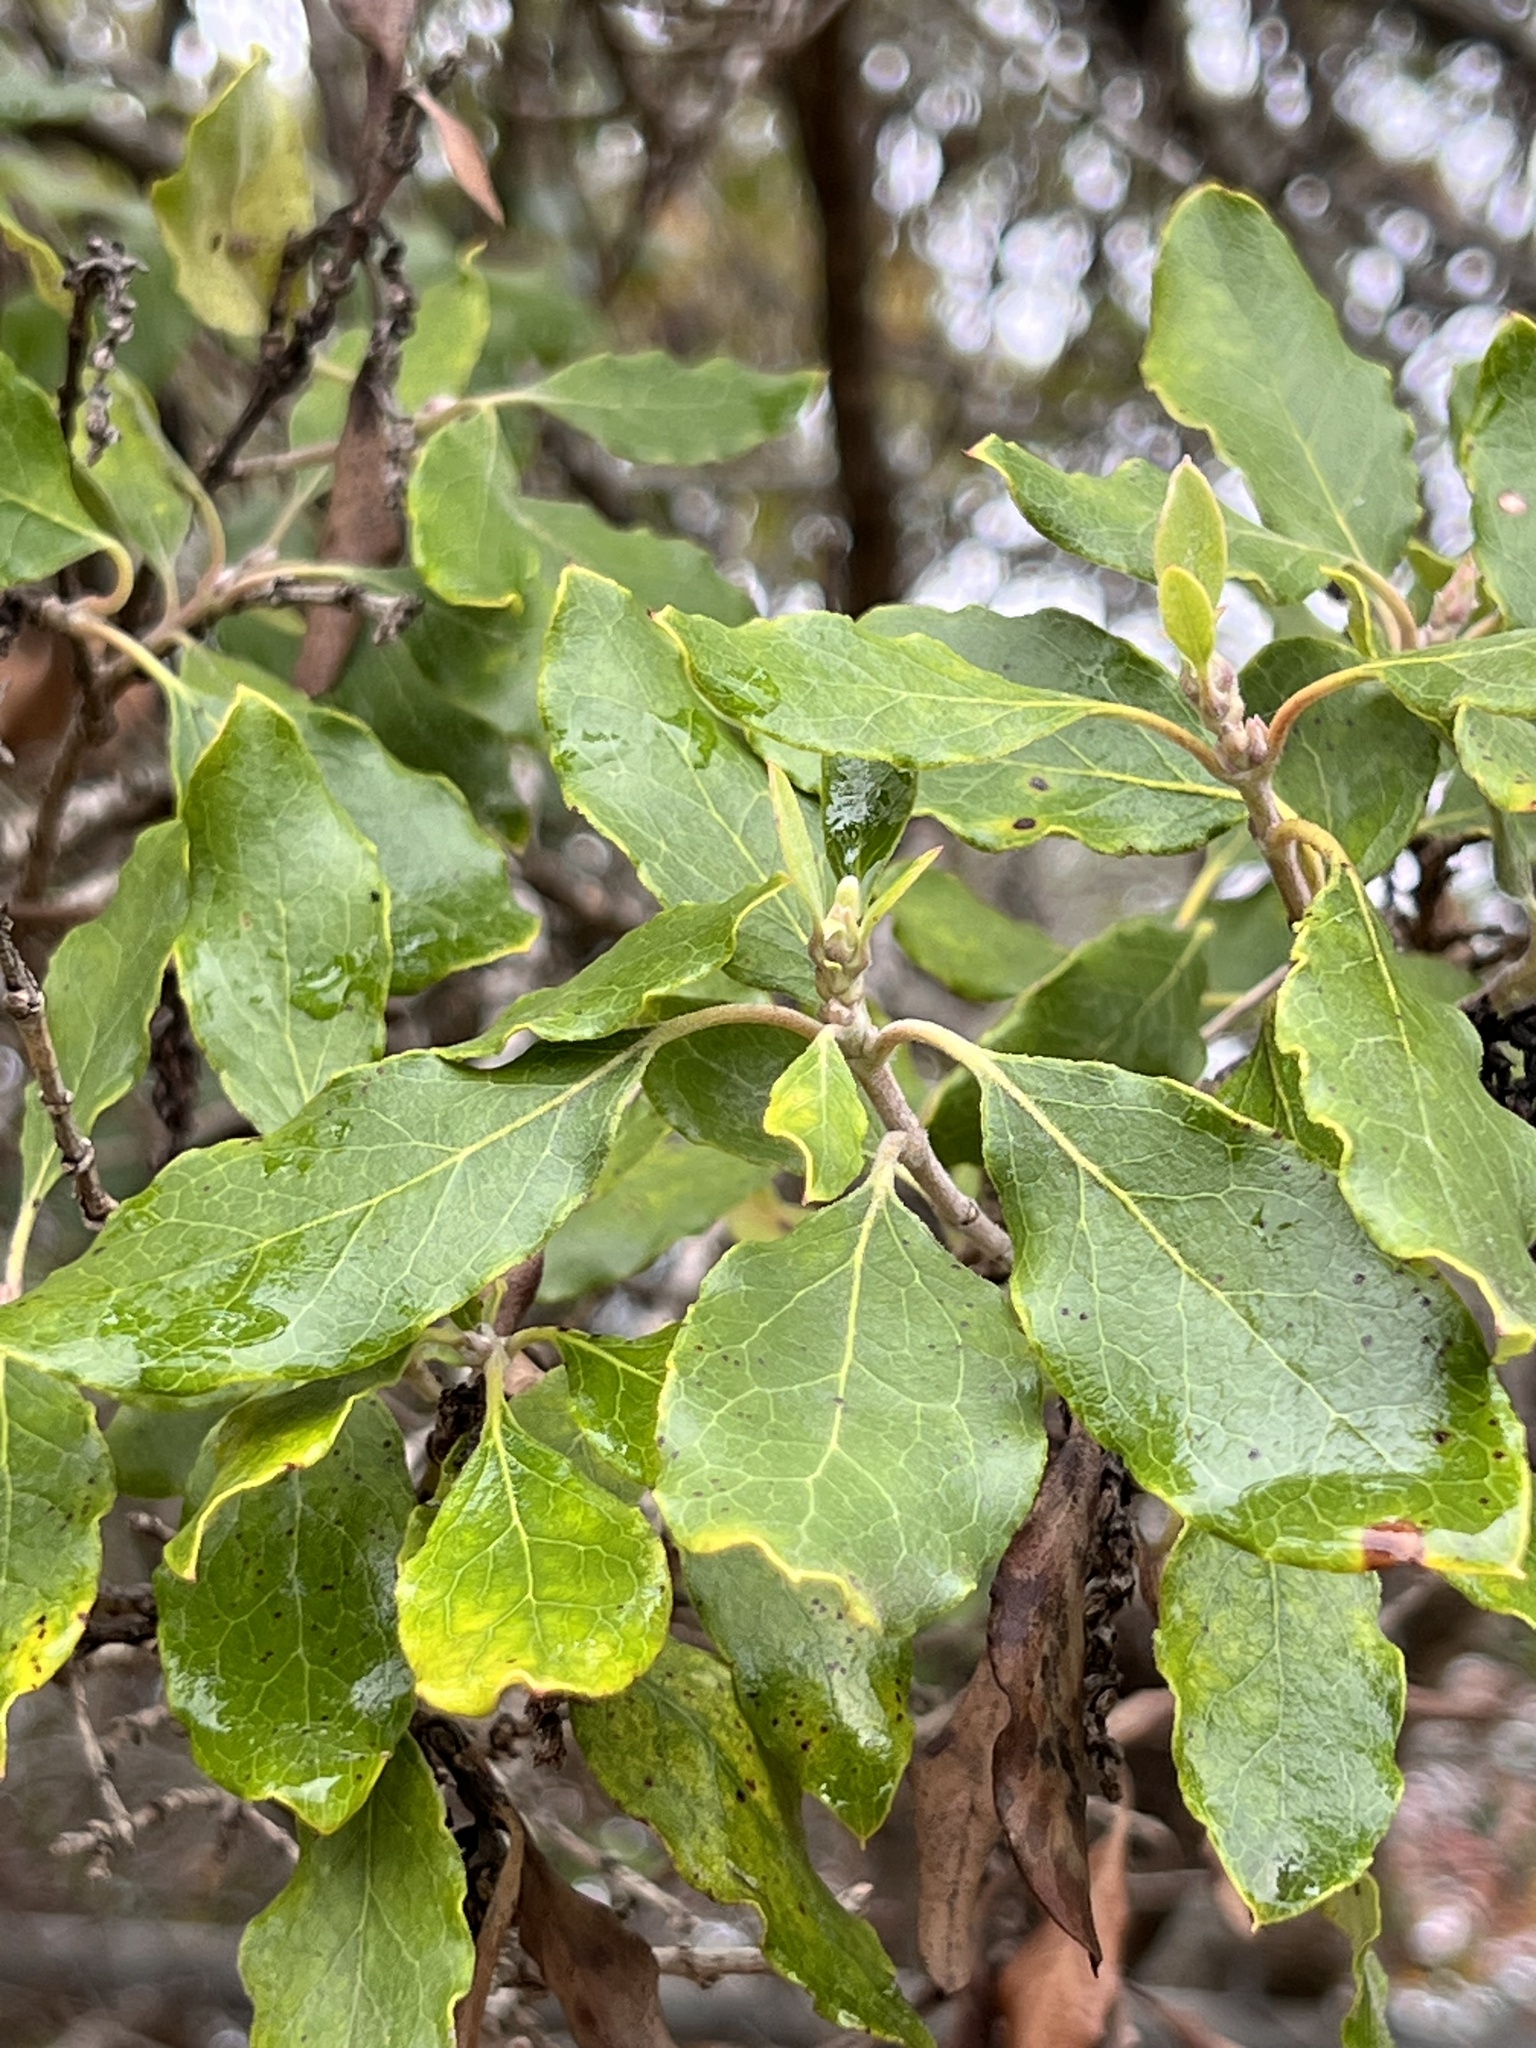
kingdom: Plantae
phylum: Tracheophyta
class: Magnoliopsida
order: Garryales
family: Garryaceae
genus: Garrya
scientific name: Garrya lindheimeri
